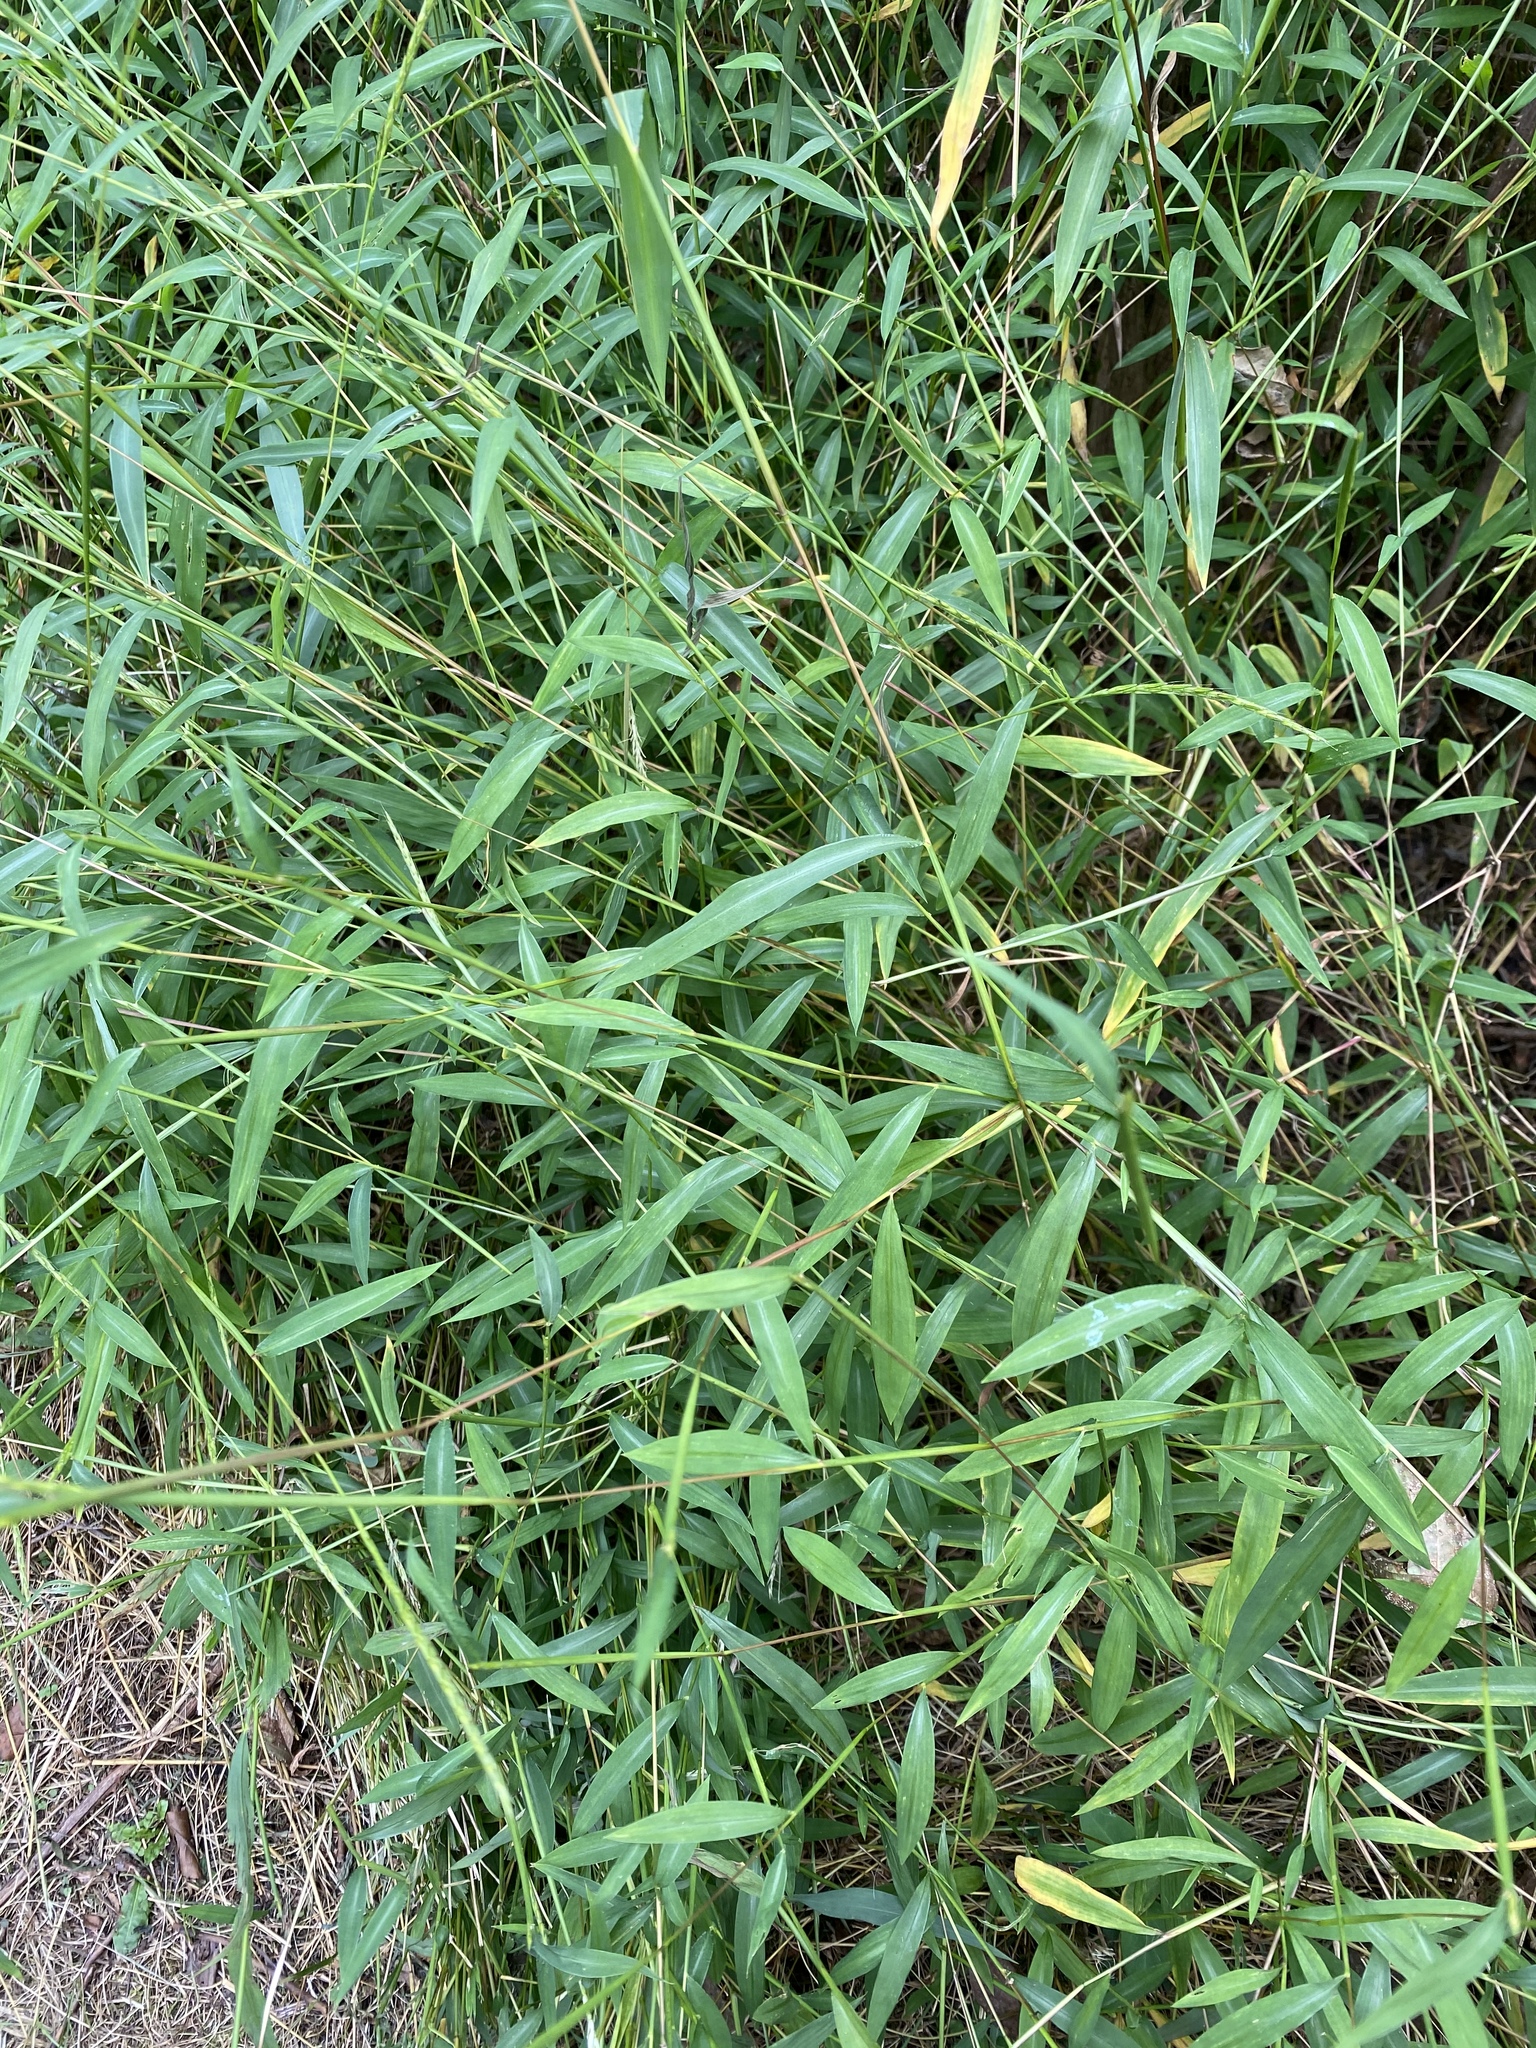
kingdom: Plantae
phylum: Tracheophyta
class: Liliopsida
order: Poales
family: Poaceae
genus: Microstegium
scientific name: Microstegium vimineum
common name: Japanese stiltgrass
